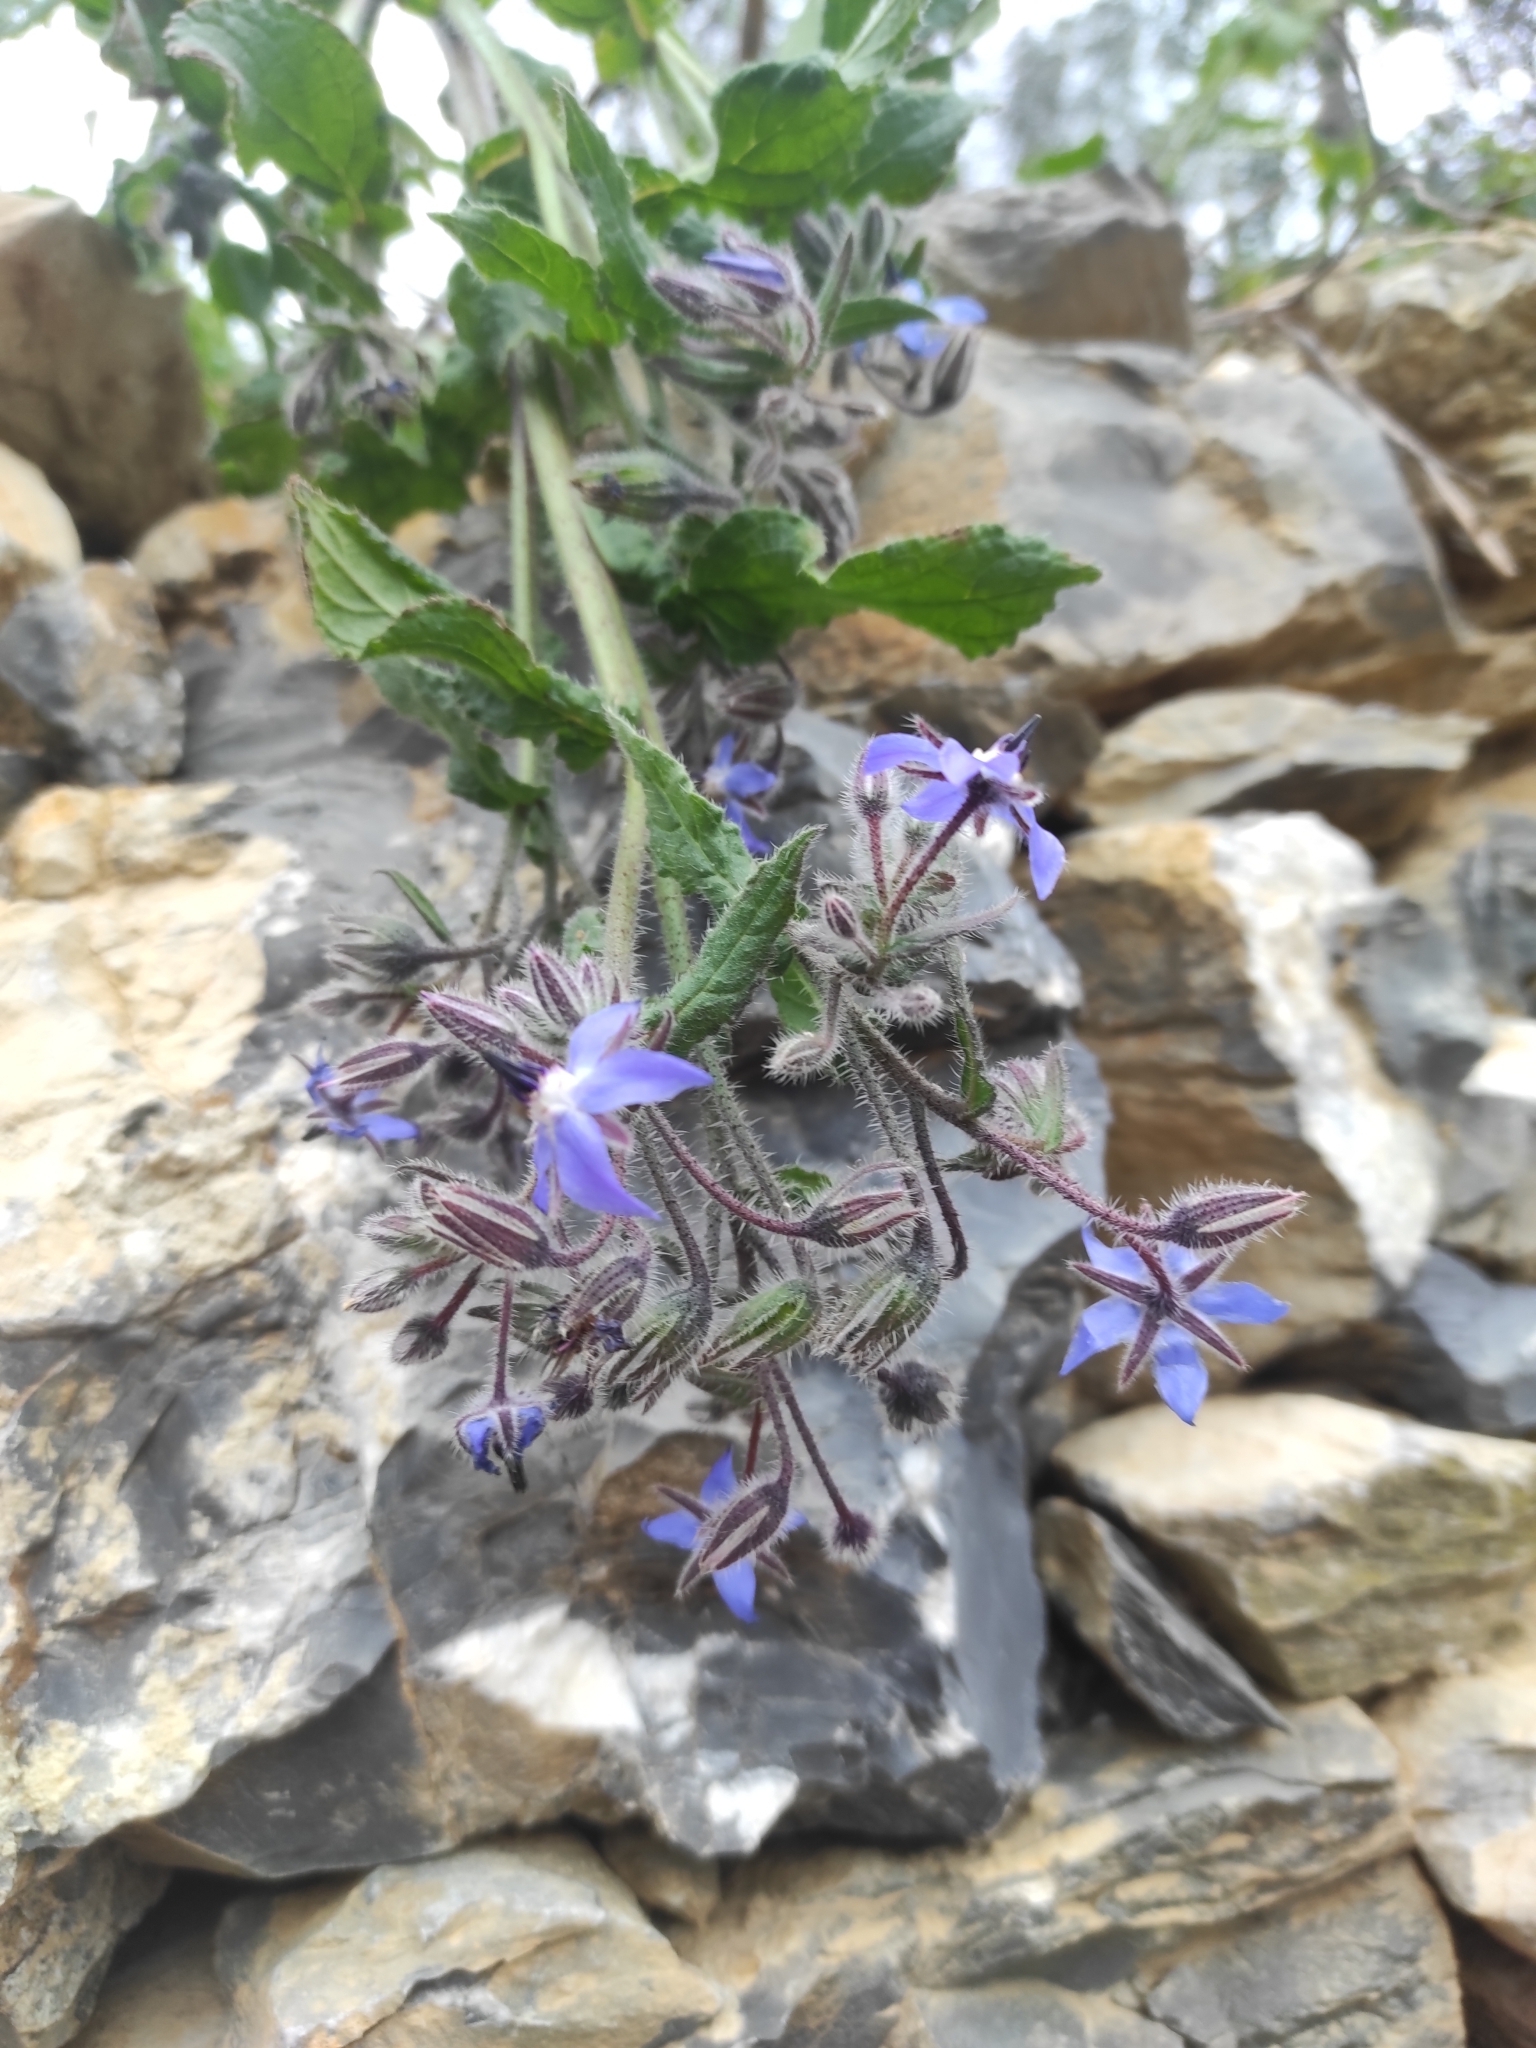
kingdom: Plantae
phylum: Tracheophyta
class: Magnoliopsida
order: Boraginales
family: Boraginaceae
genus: Borago
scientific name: Borago officinalis
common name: Borage
